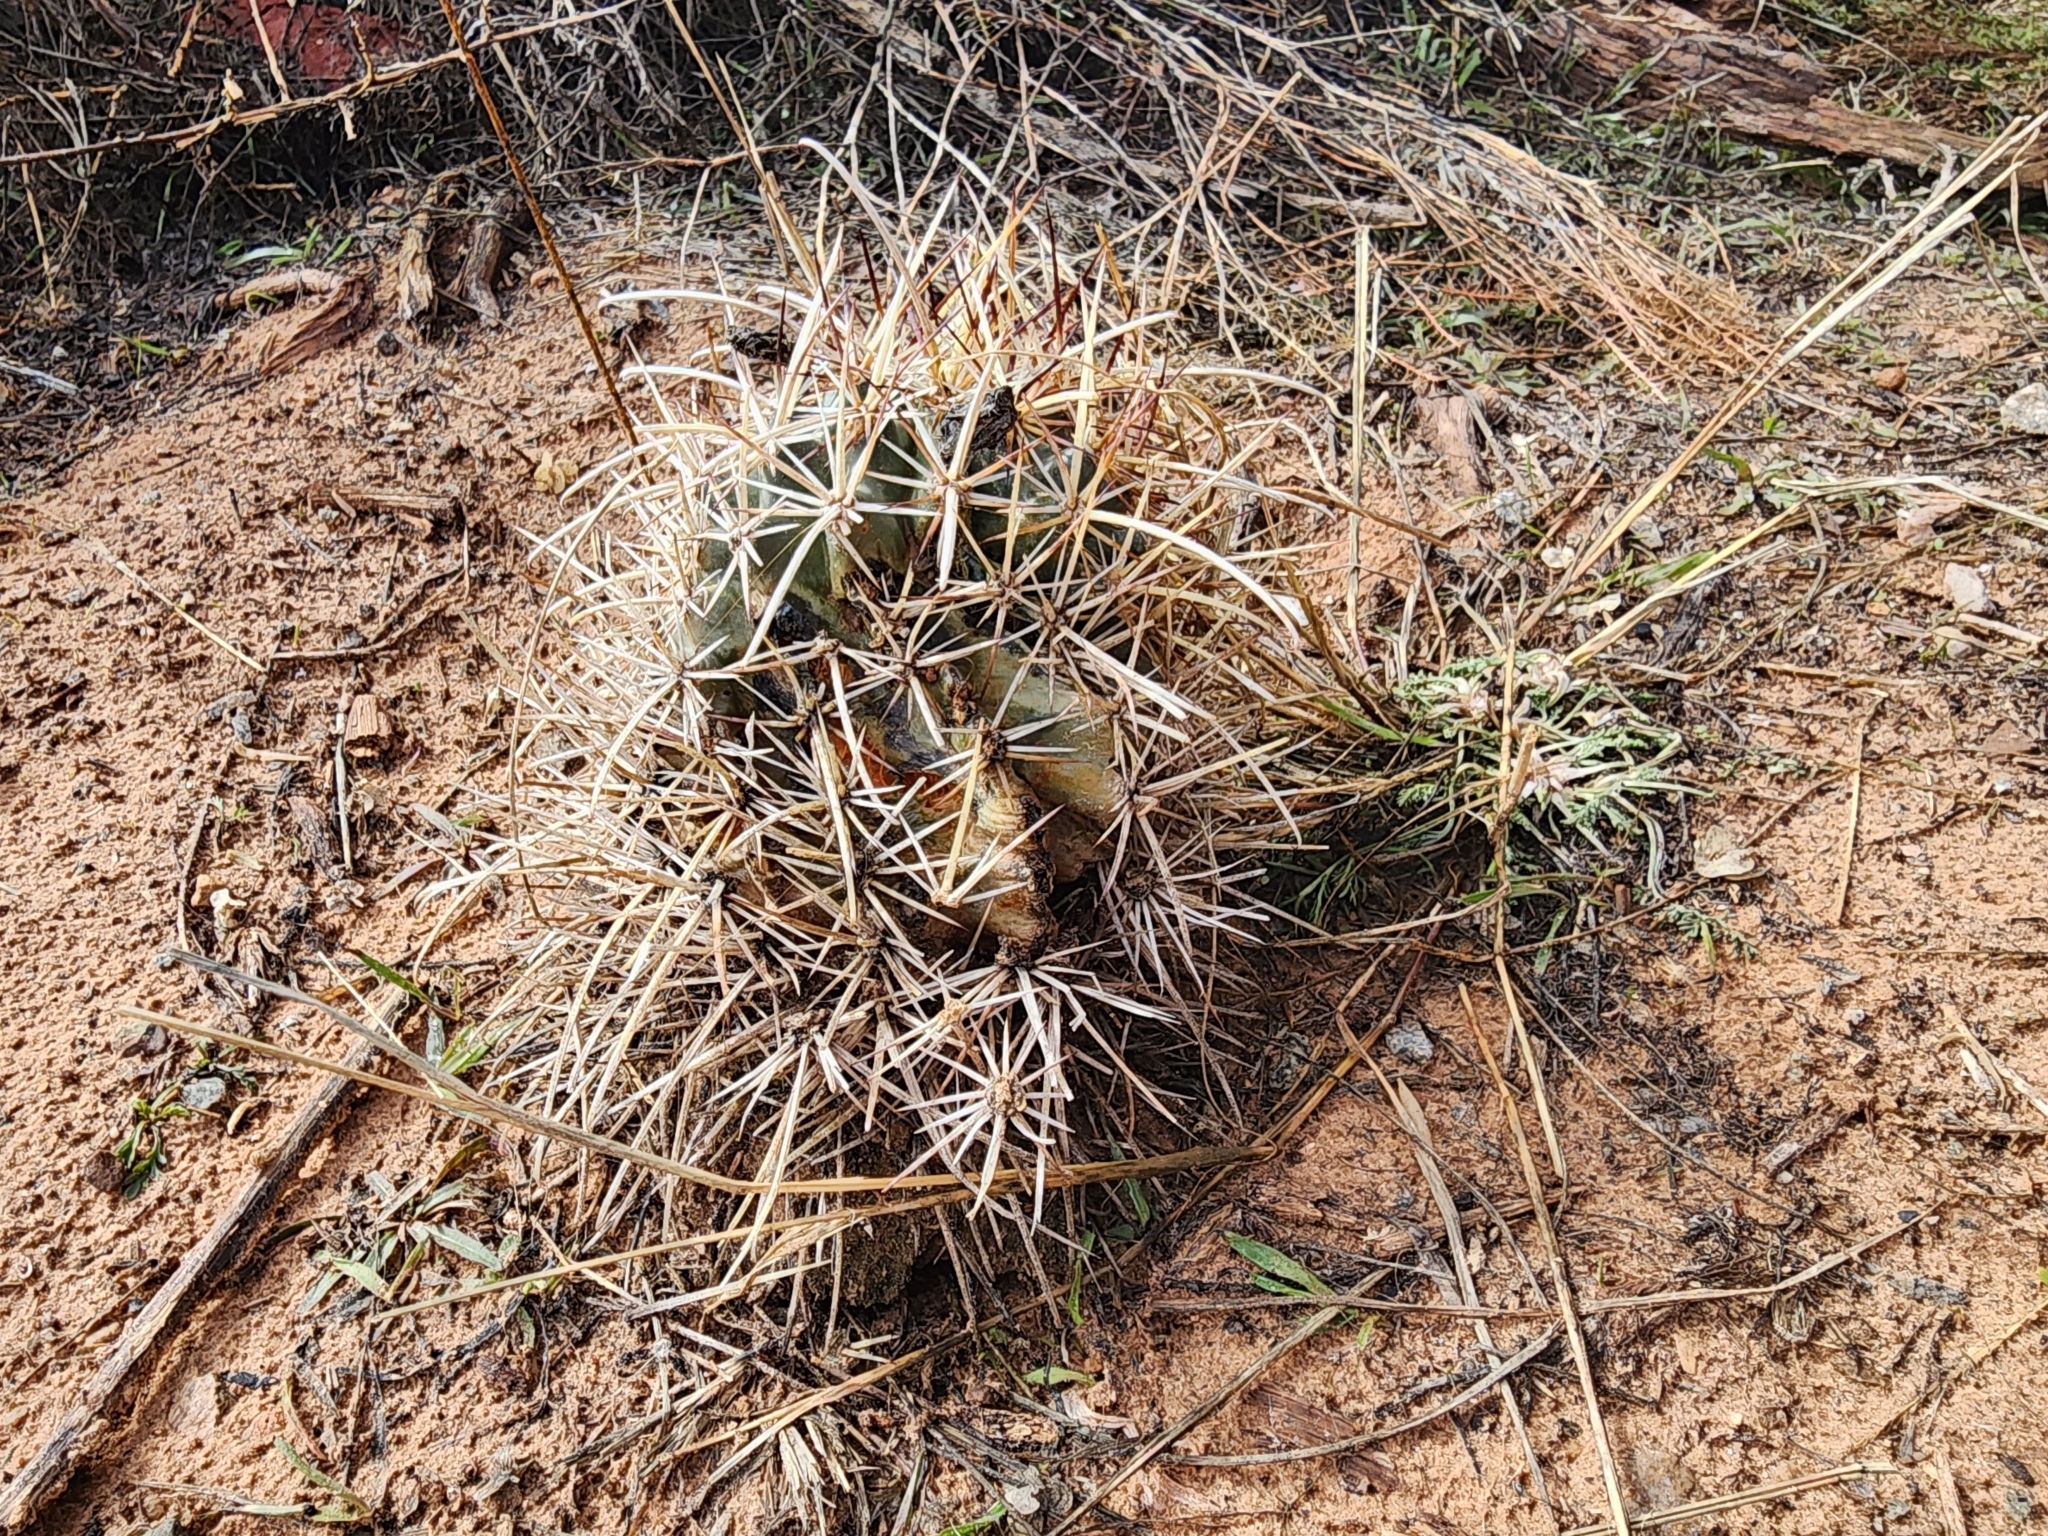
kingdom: Plantae
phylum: Tracheophyta
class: Magnoliopsida
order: Caryophyllales
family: Cactaceae
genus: Sclerocactus
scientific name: Sclerocactus parviflorus
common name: Small-flower fishhook cactus
